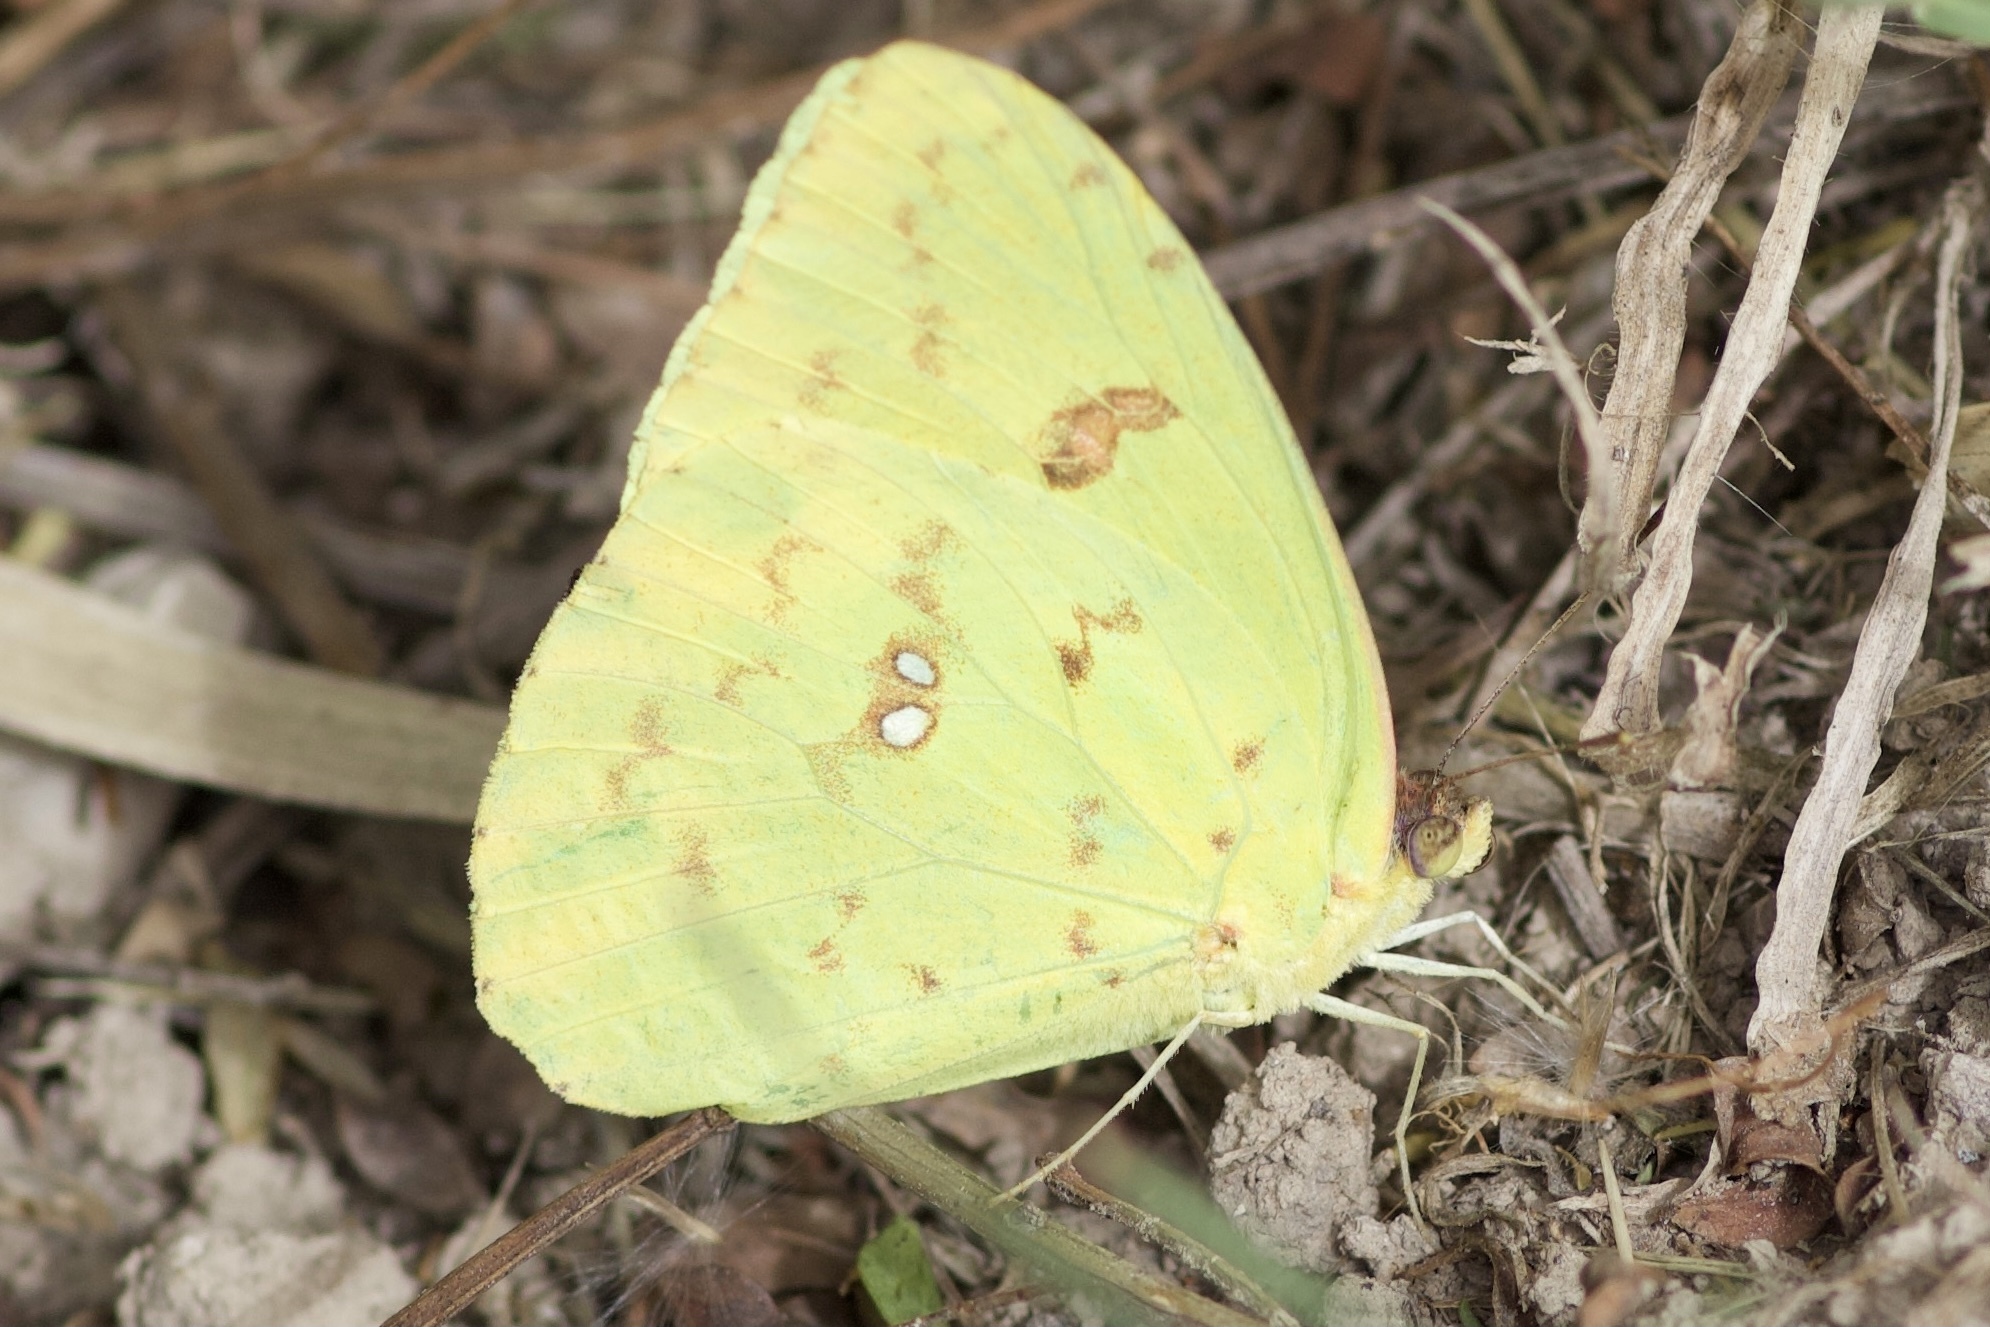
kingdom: Animalia
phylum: Arthropoda
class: Insecta
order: Lepidoptera
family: Pieridae
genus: Phoebis
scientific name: Phoebis sennae
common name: Cloudless sulphur
